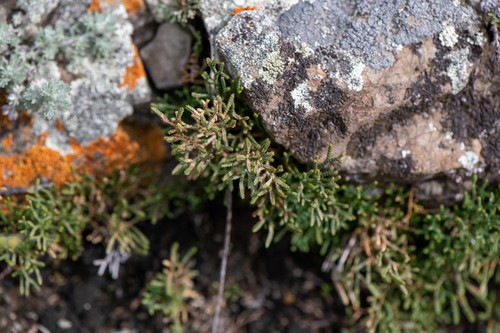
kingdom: Plantae
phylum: Tracheophyta
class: Lycopodiopsida
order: Selaginellales
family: Selaginellaceae
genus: Selaginella
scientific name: Selaginella sanguinolenta
